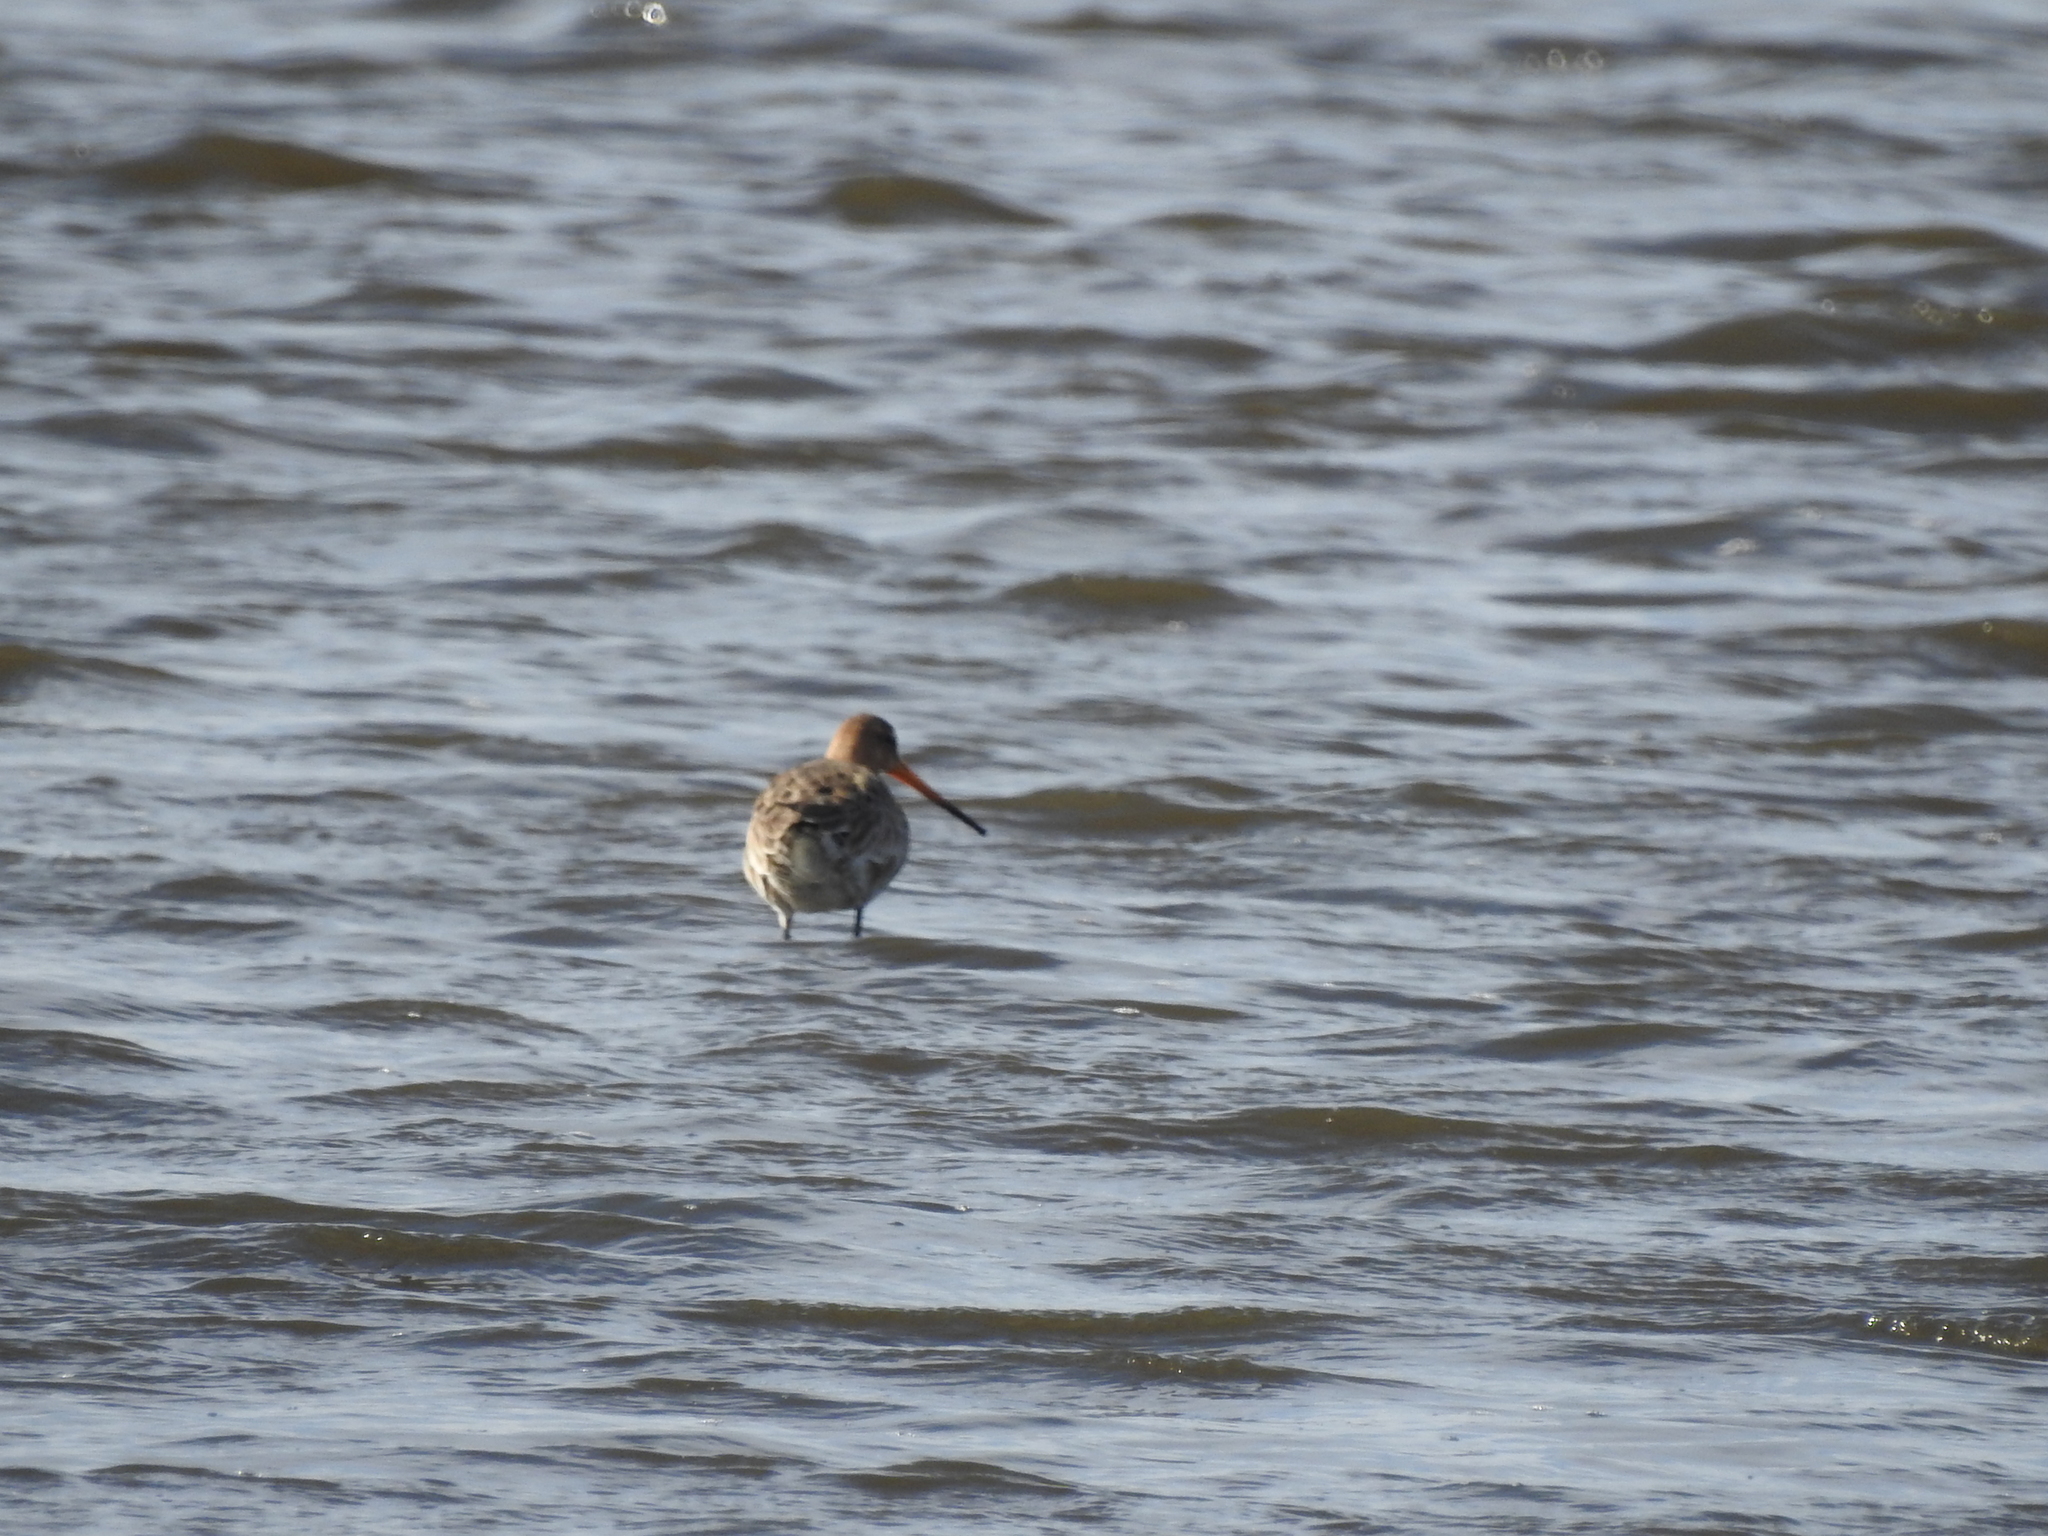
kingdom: Animalia
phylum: Chordata
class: Aves
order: Charadriiformes
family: Scolopacidae
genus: Limosa
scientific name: Limosa limosa
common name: Black-tailed godwit
